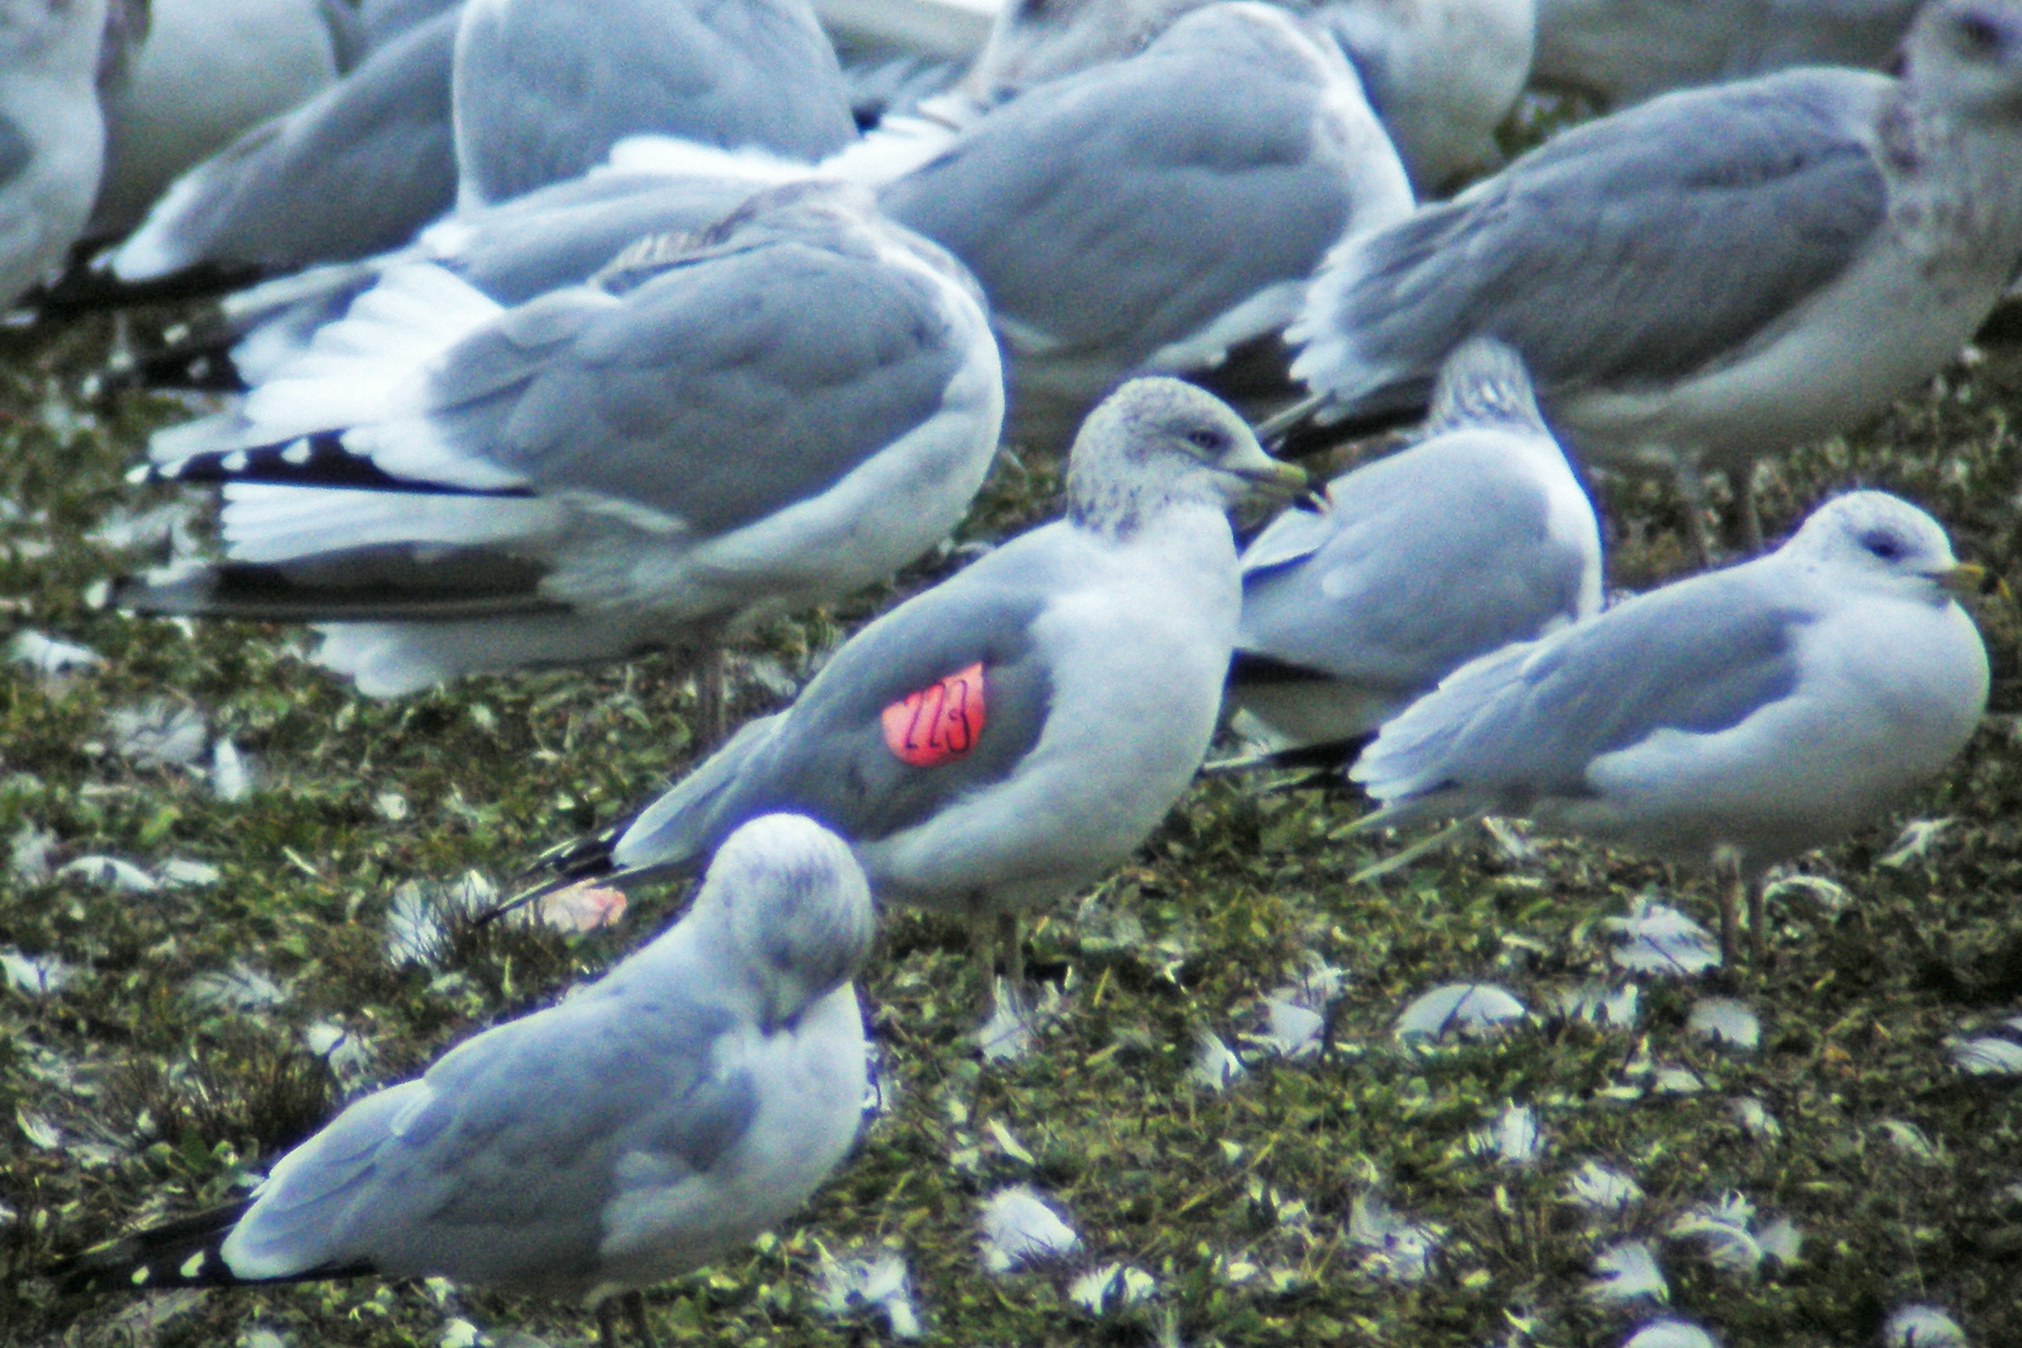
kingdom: Animalia
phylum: Chordata
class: Aves
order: Charadriiformes
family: Laridae
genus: Larus
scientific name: Larus delawarensis
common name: Ring-billed gull
